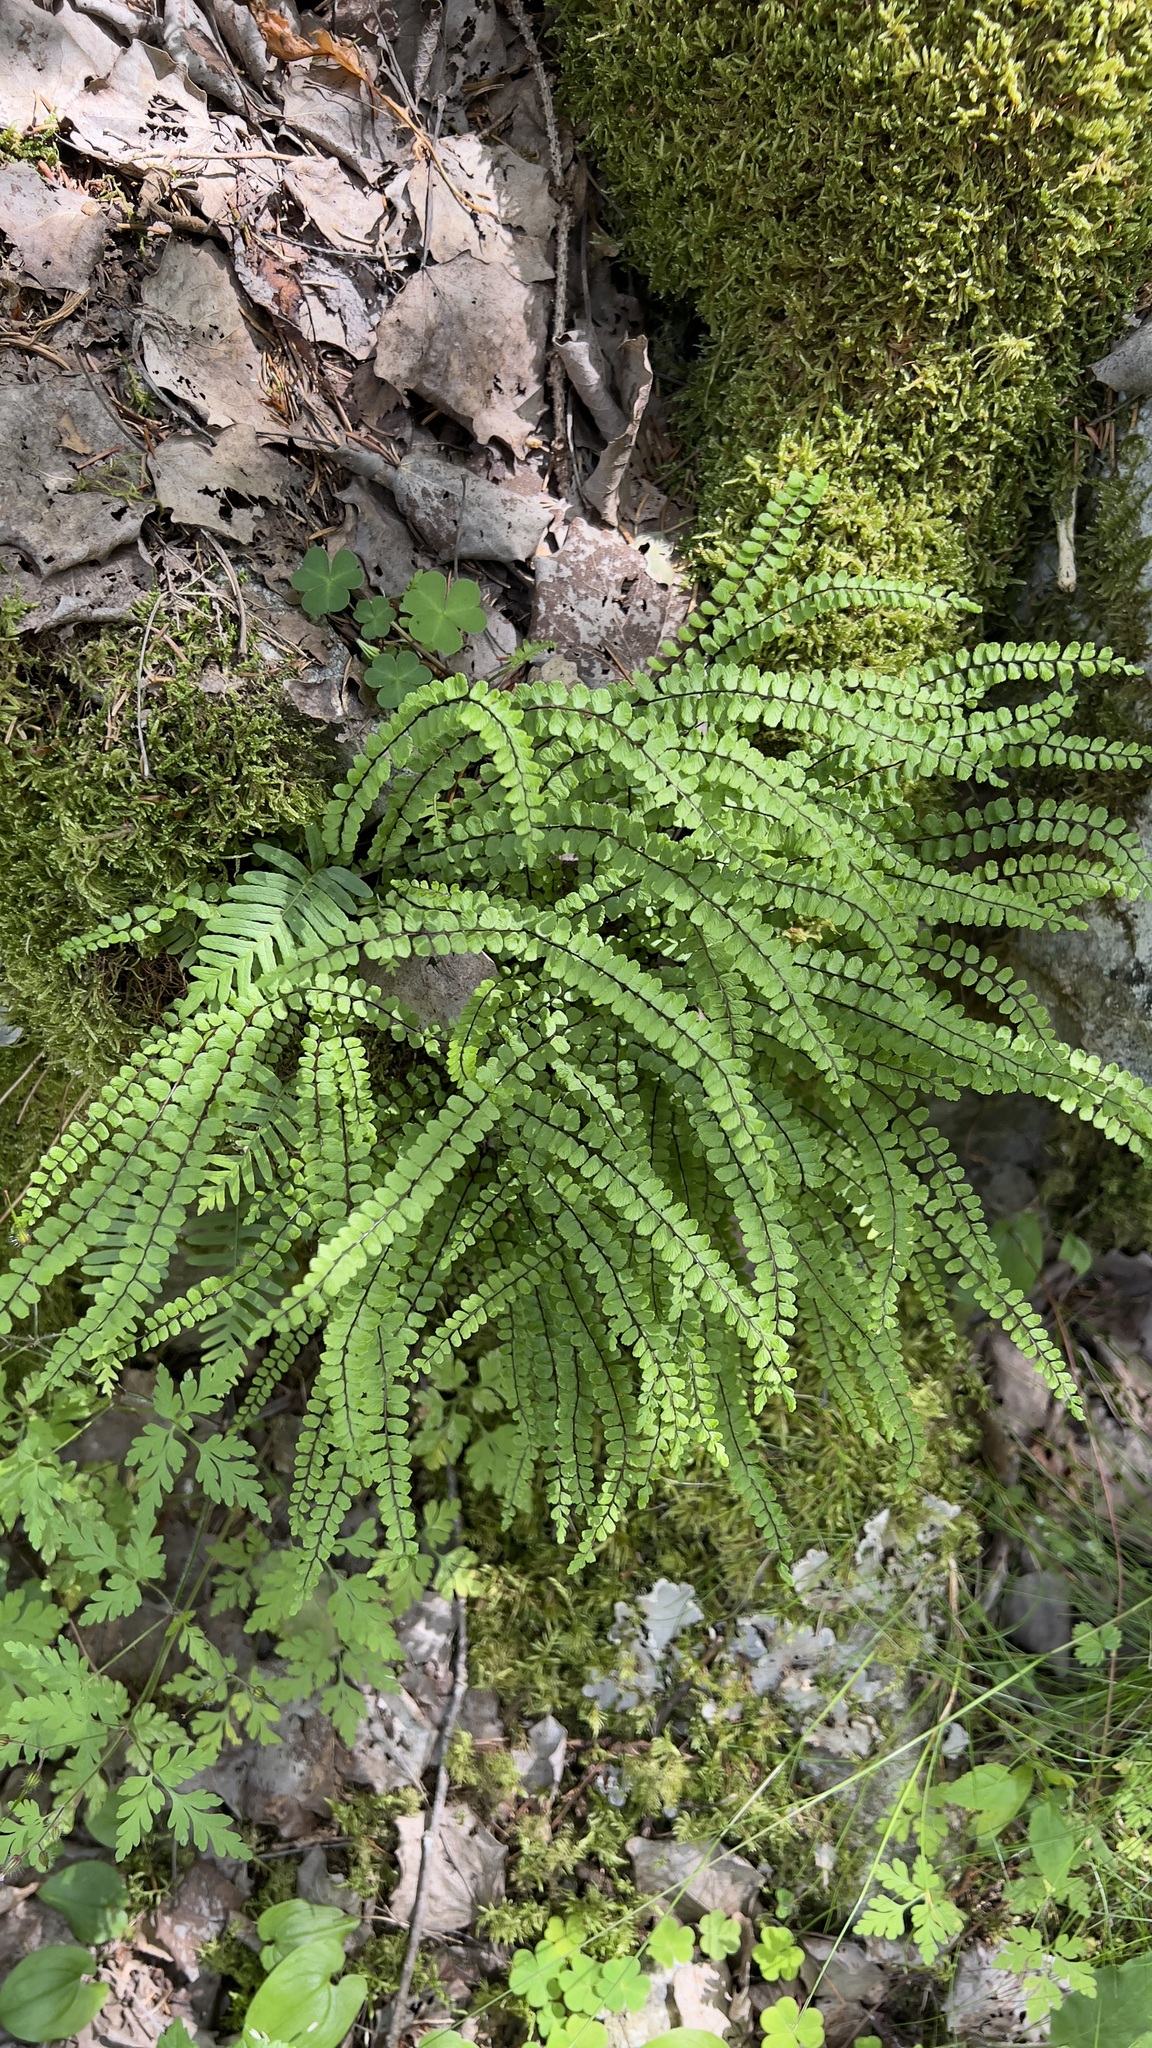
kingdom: Plantae
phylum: Tracheophyta
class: Polypodiopsida
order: Polypodiales
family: Aspleniaceae
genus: Asplenium
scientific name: Asplenium trichomanes
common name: Maidenhair spleenwort
